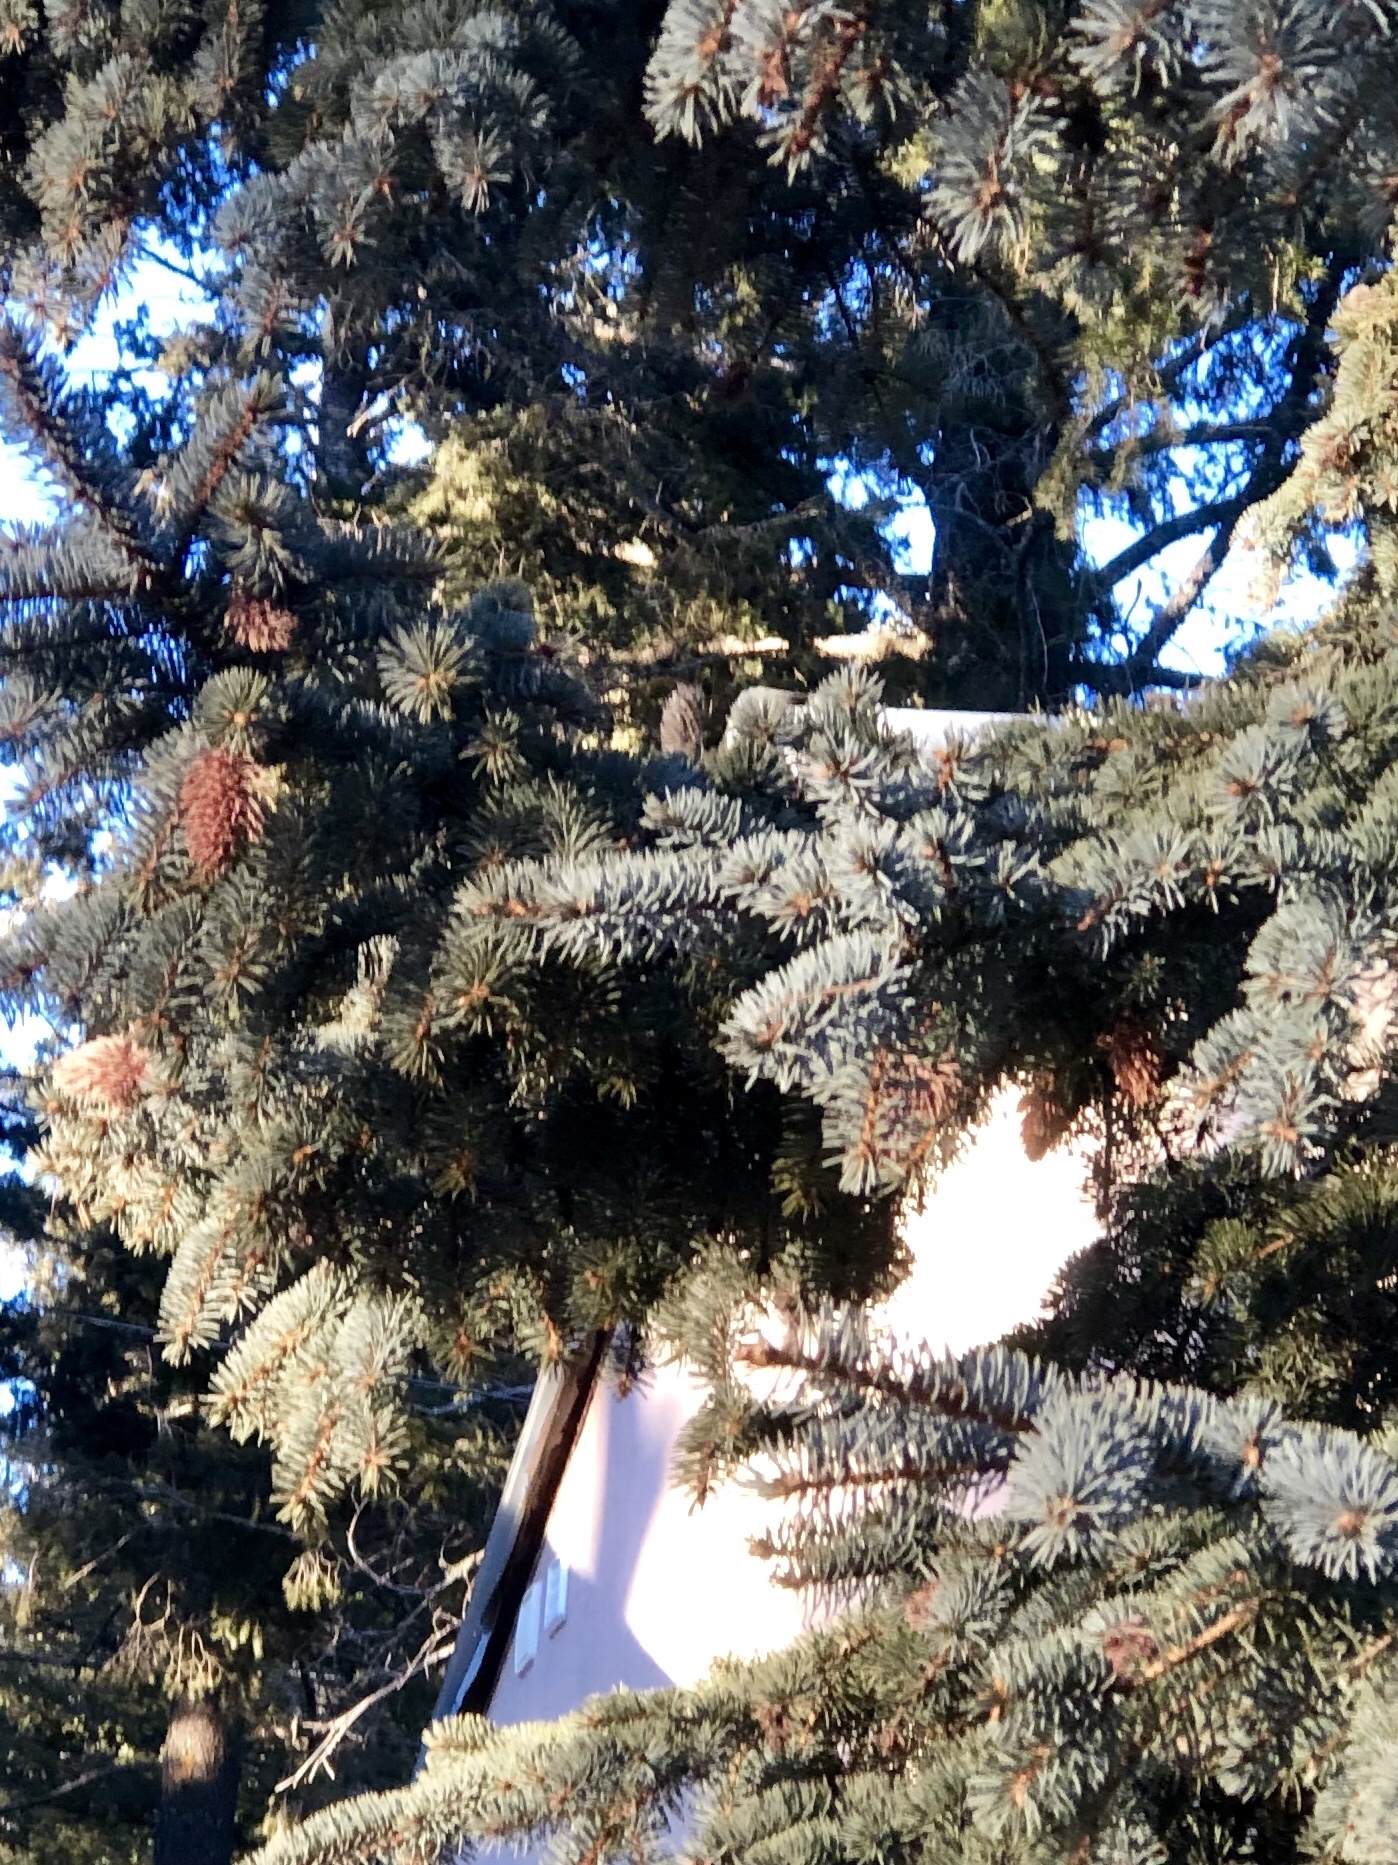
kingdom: Animalia
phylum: Arthropoda
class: Insecta
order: Hemiptera
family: Adelgidae
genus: Adelges
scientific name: Adelges cooleyi
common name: Cooley spruce gall adelgid
